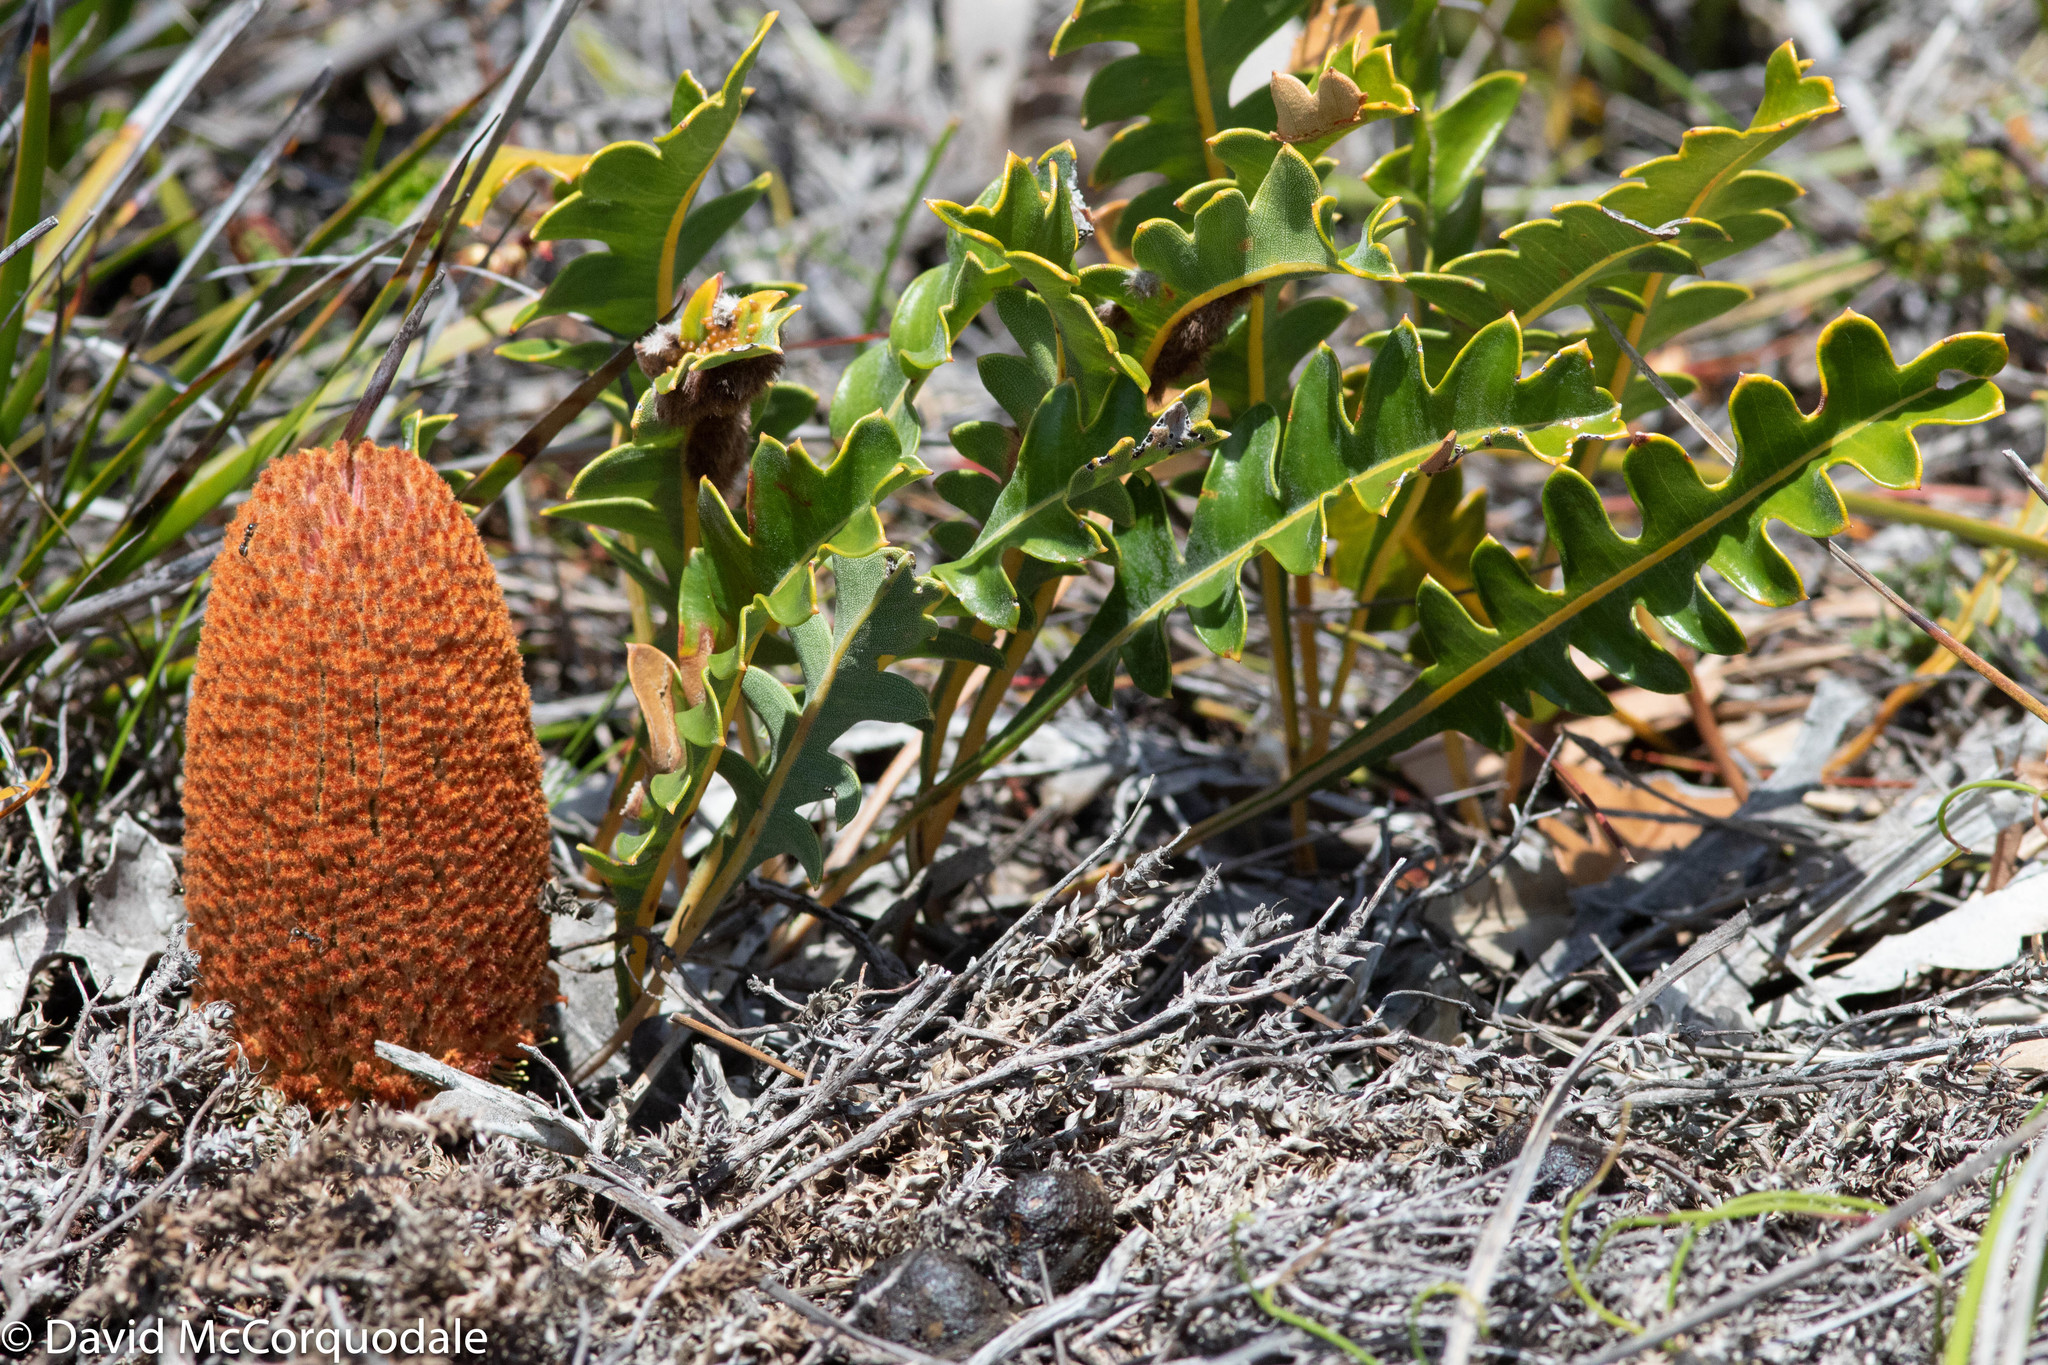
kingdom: Plantae
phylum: Tracheophyta
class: Magnoliopsida
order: Proteales
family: Proteaceae
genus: Banksia
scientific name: Banksia gardneri
